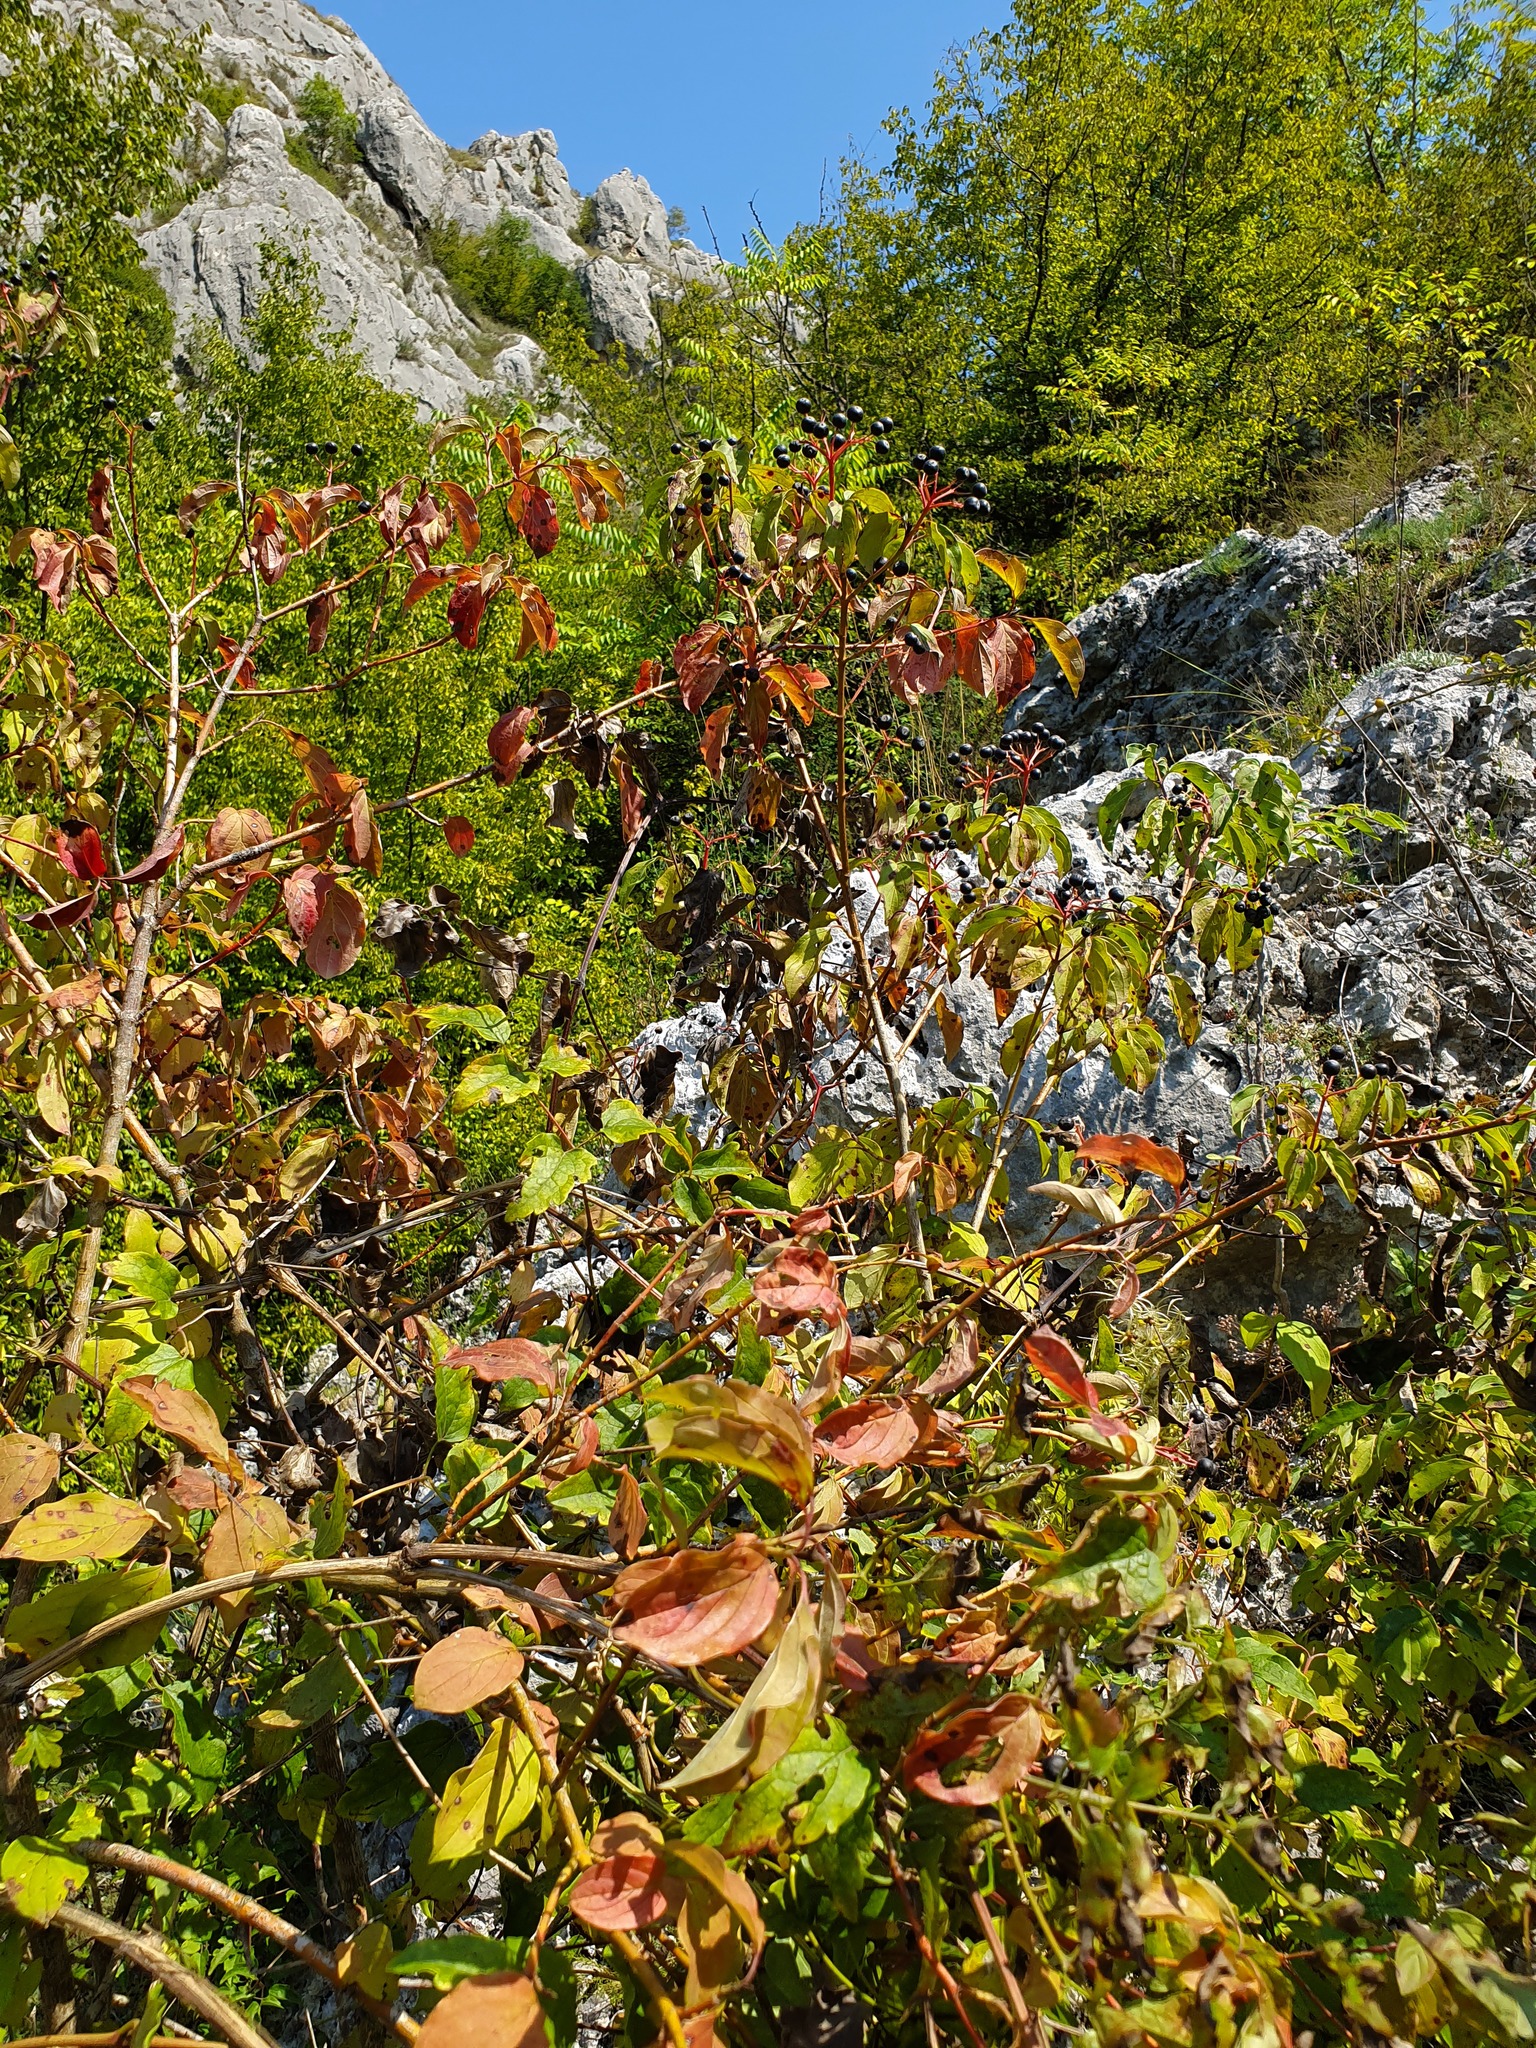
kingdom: Plantae
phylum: Tracheophyta
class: Magnoliopsida
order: Cornales
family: Cornaceae
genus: Cornus
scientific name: Cornus sanguinea
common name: Dogwood
